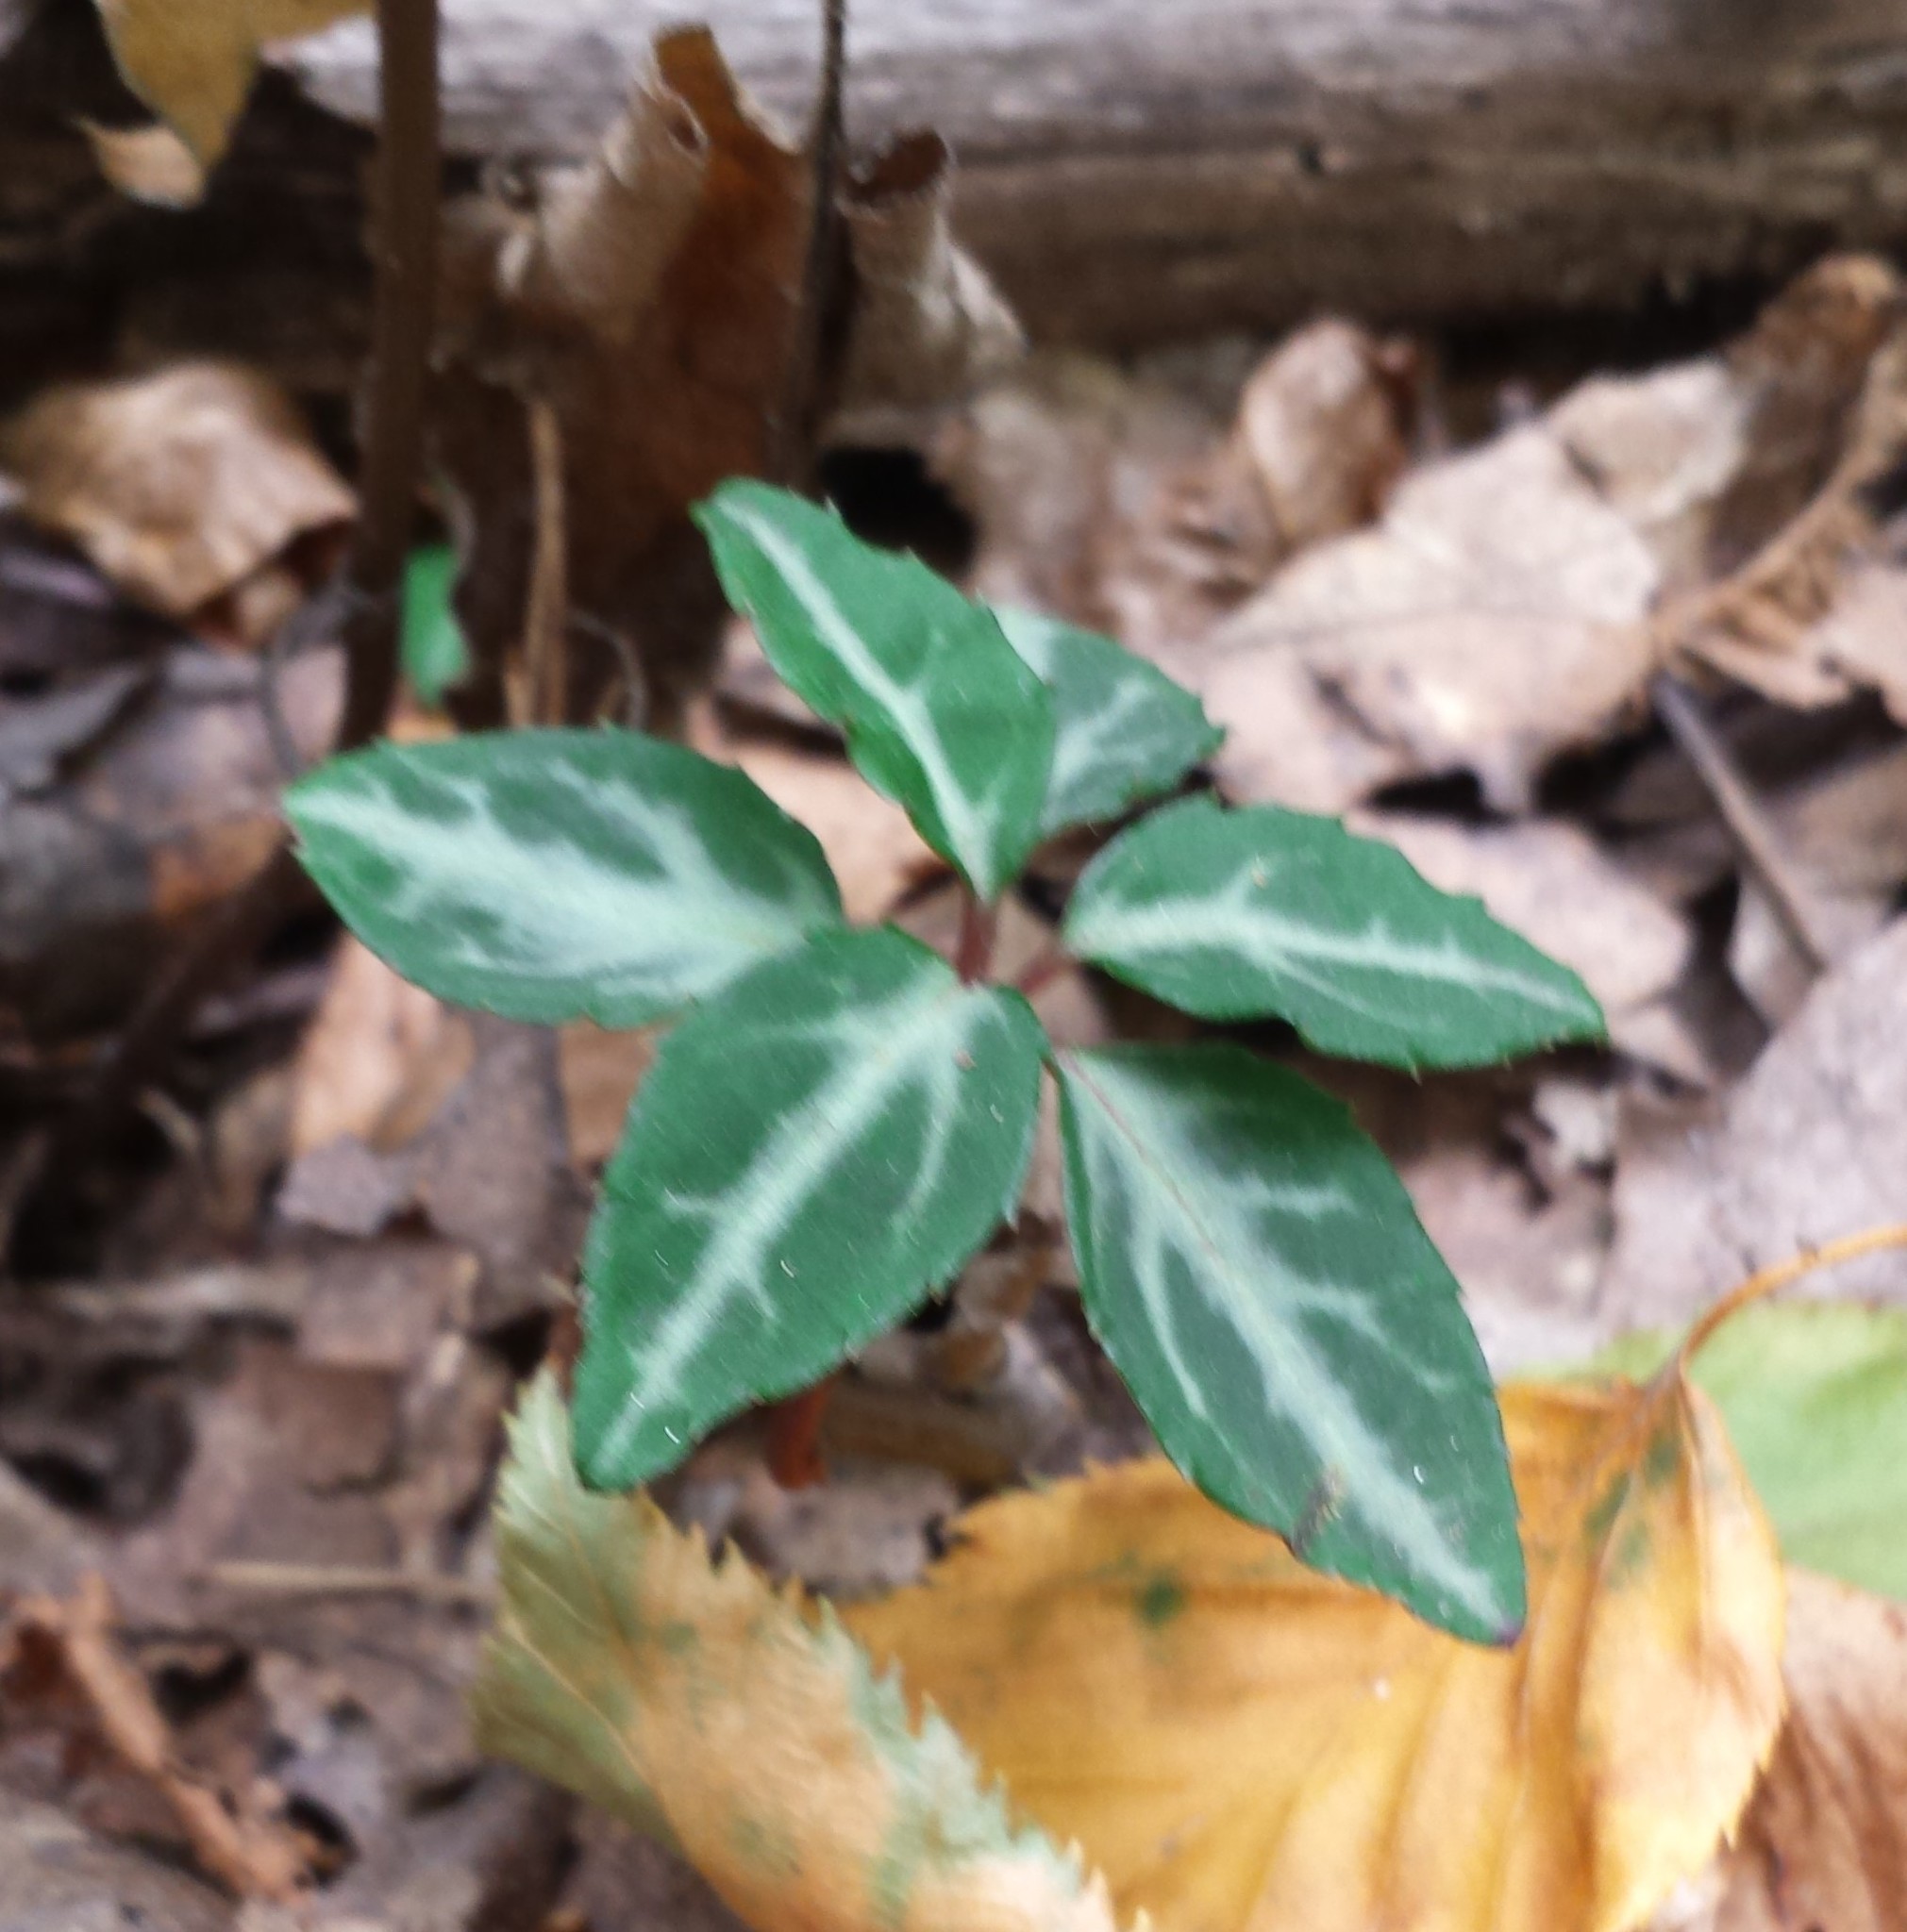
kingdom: Plantae
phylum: Tracheophyta
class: Magnoliopsida
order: Ericales
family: Ericaceae
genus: Chimaphila
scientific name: Chimaphila maculata
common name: Spotted pipsissewa
